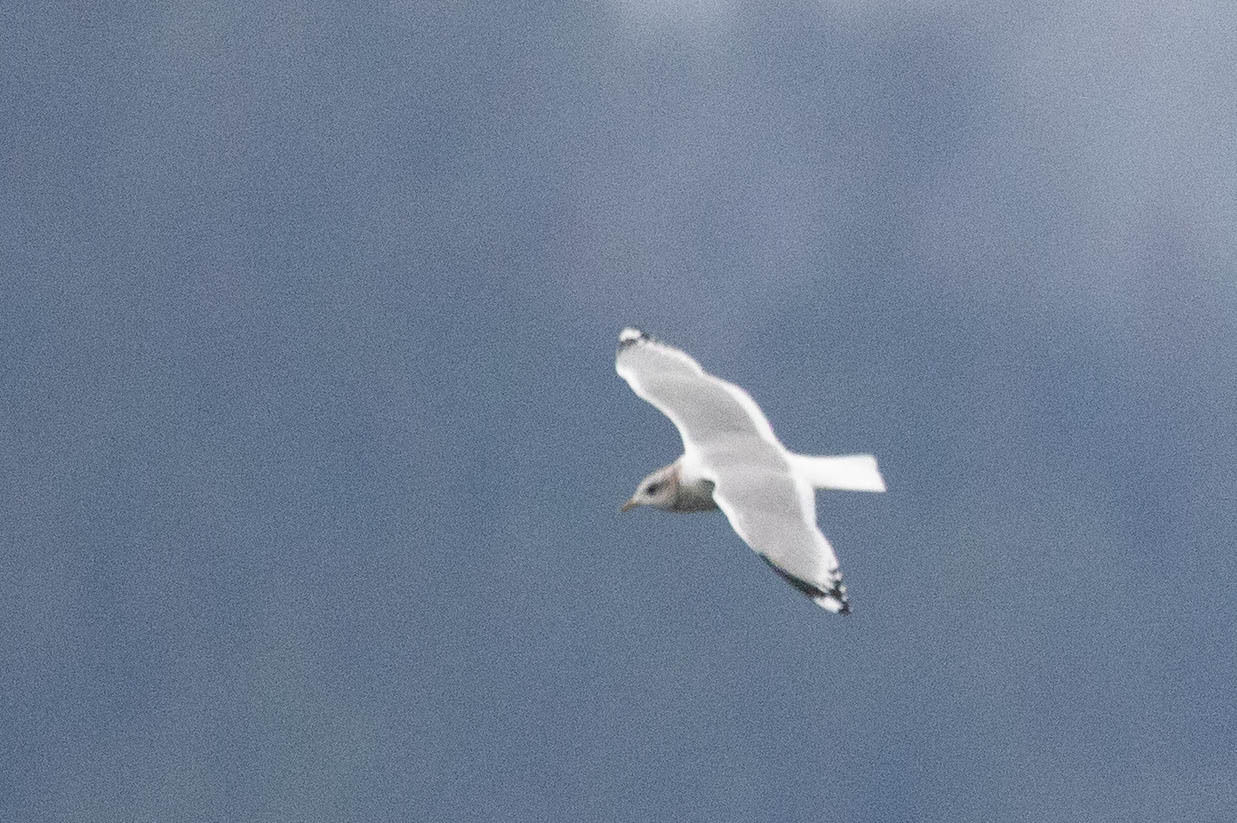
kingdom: Animalia
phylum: Chordata
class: Aves
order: Charadriiformes
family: Laridae
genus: Larus
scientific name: Larus brachyrhynchus
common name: Short-billed gull
